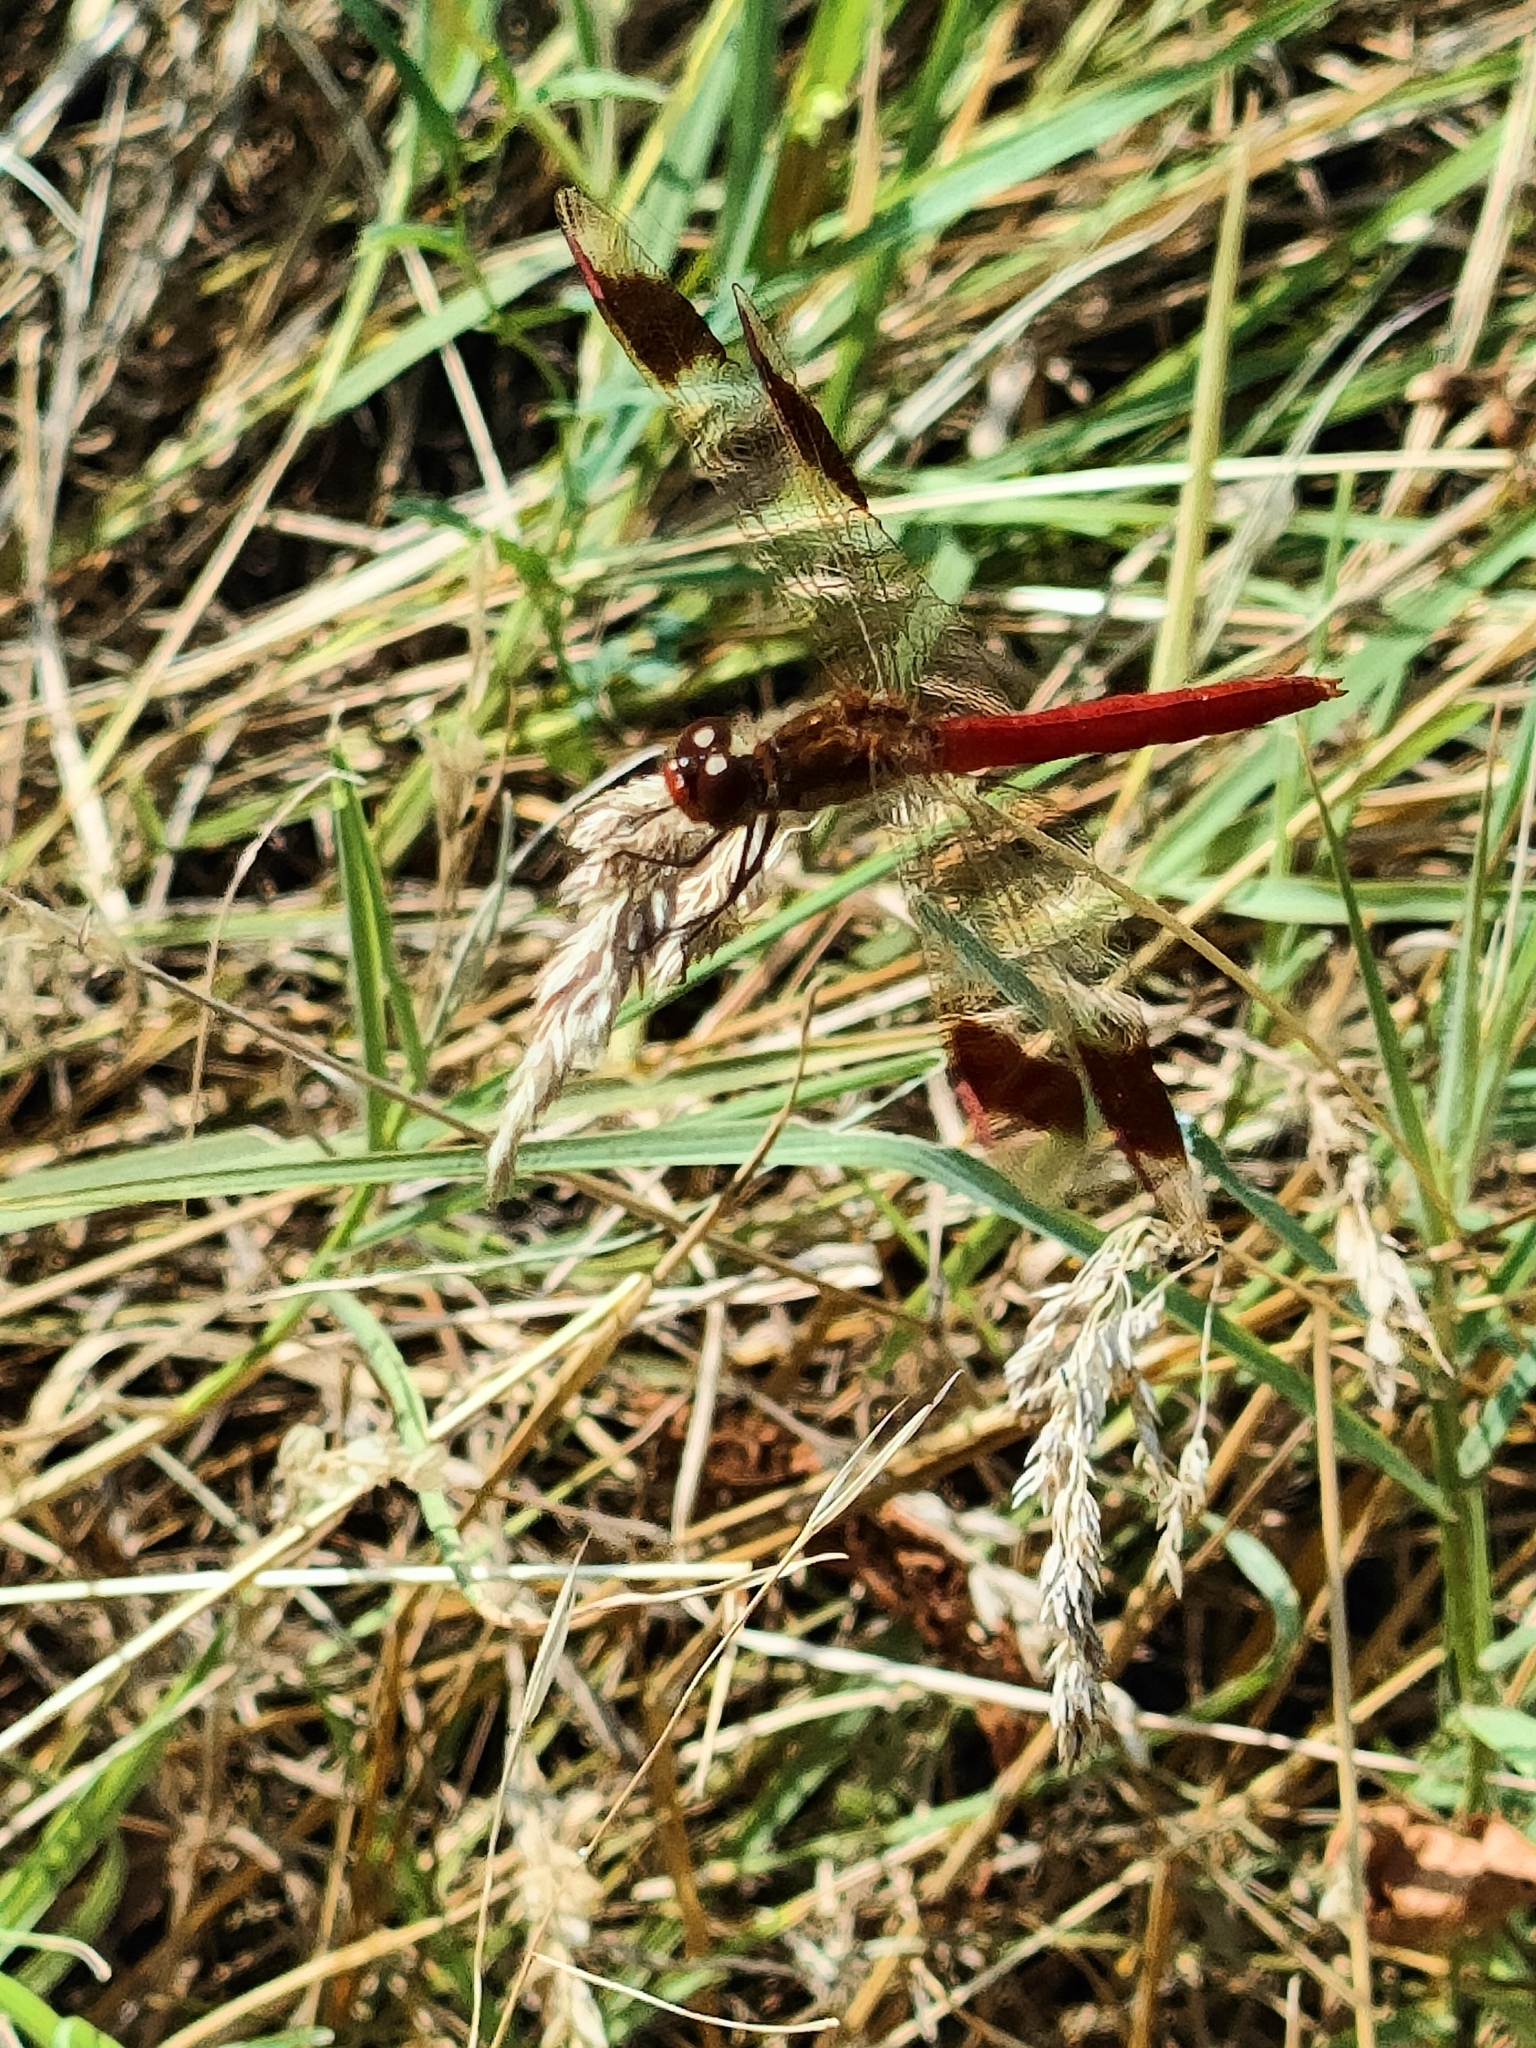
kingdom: Animalia
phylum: Arthropoda
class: Insecta
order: Odonata
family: Libellulidae
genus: Sympetrum
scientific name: Sympetrum pedemontanum
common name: Banded darter
